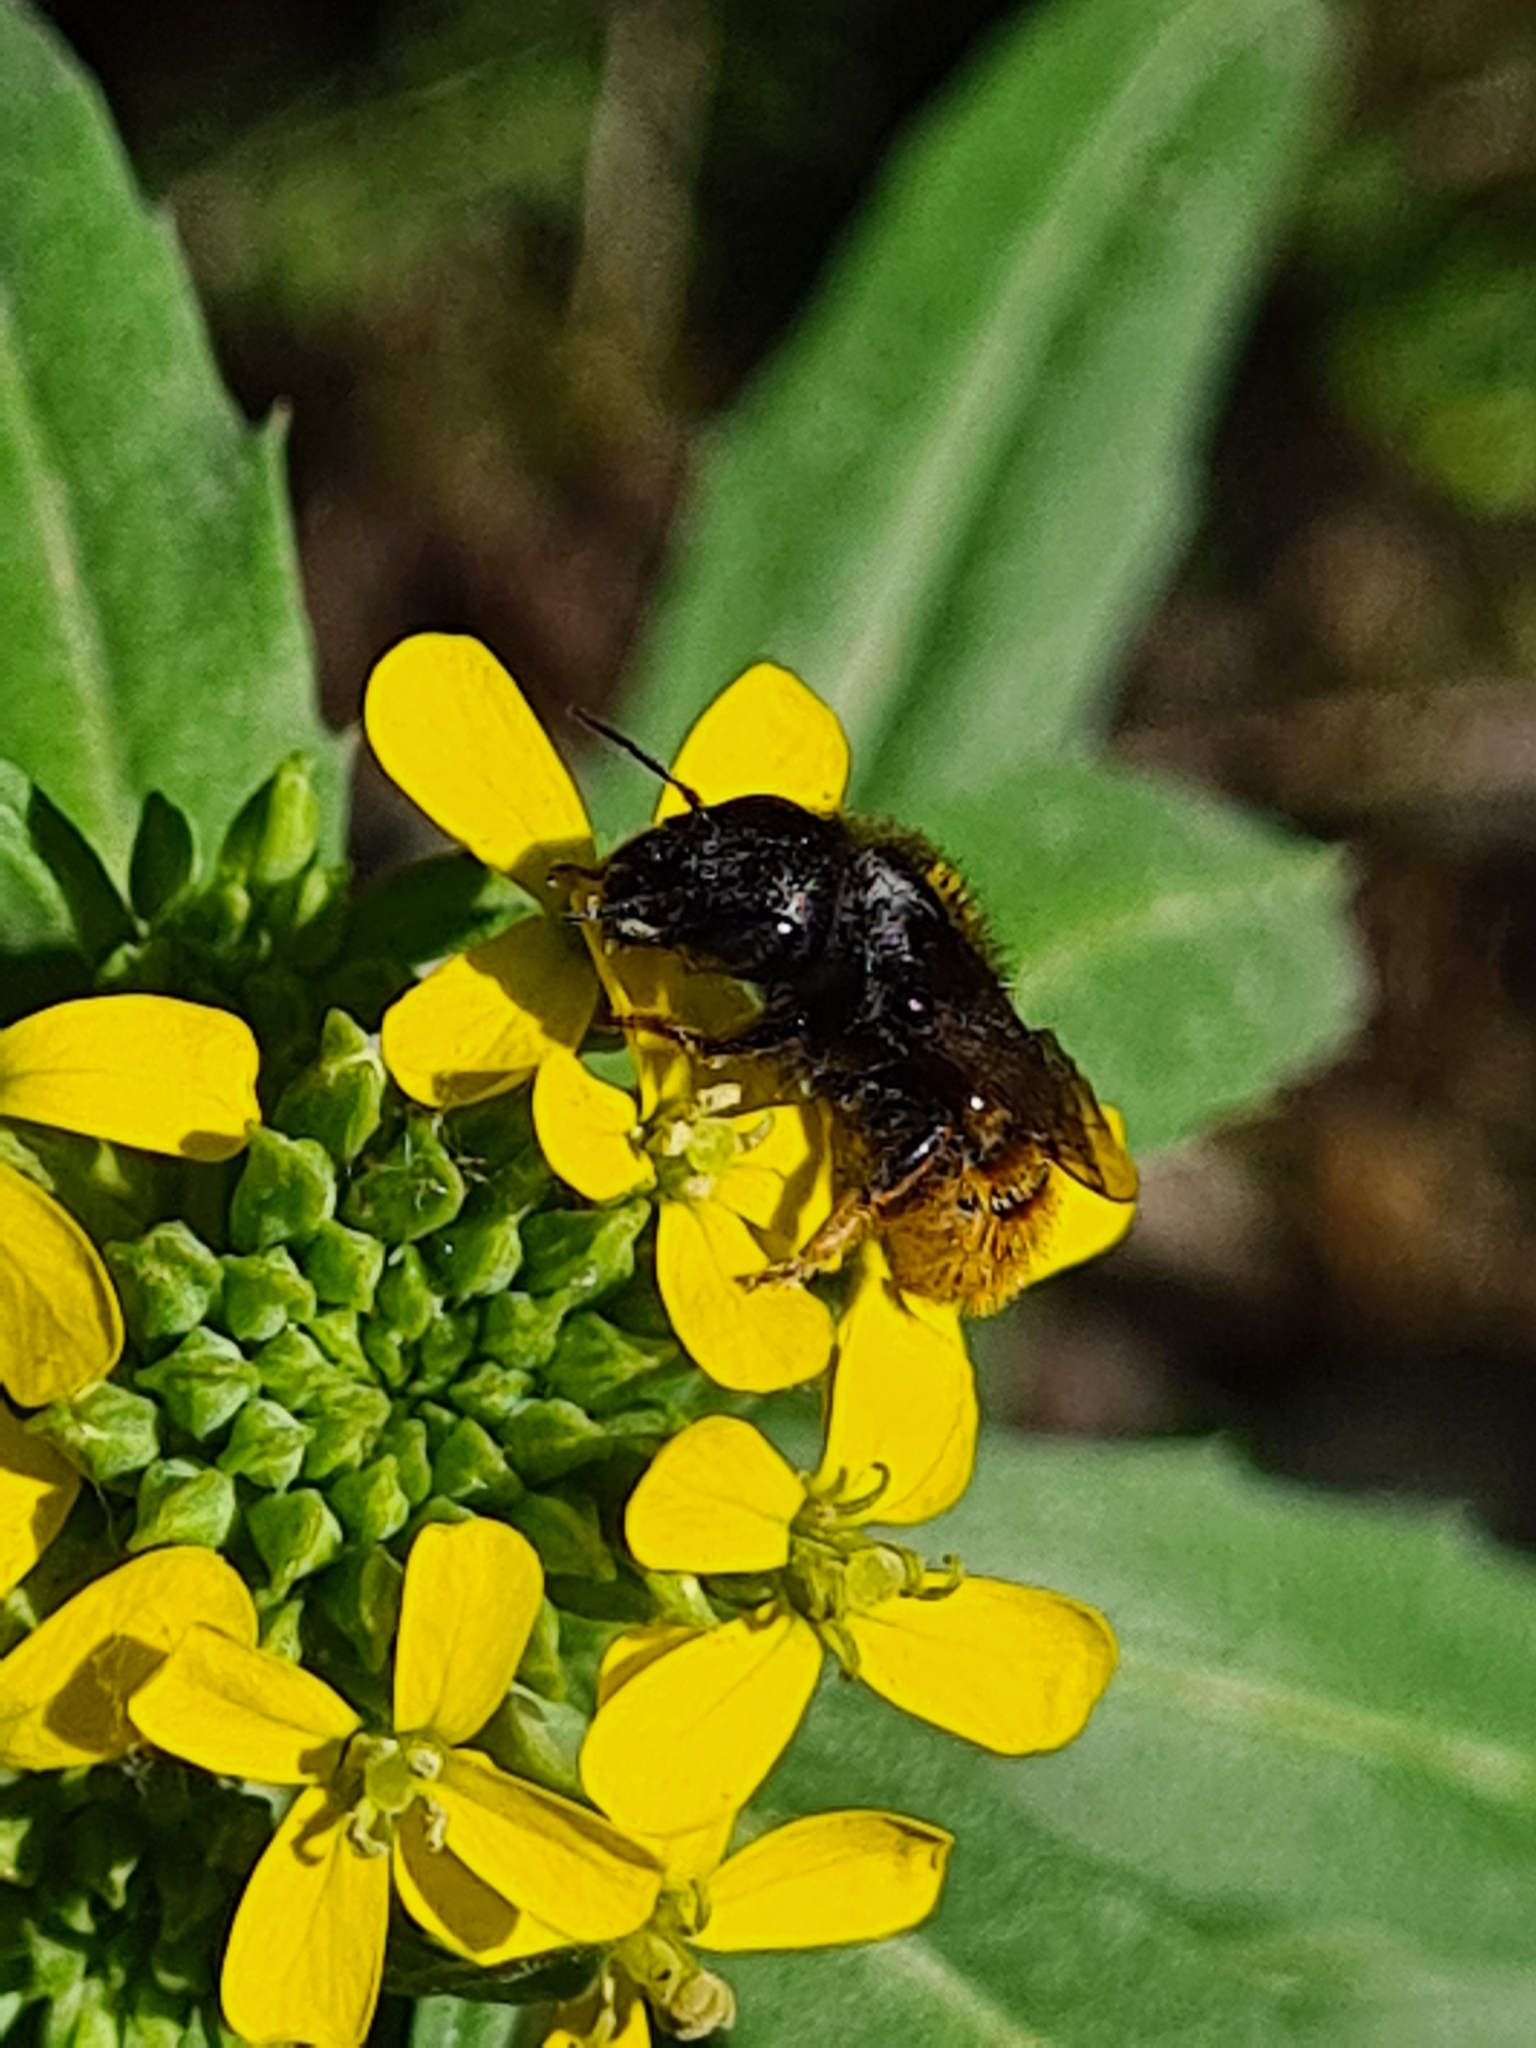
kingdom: Animalia
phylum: Arthropoda
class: Insecta
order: Hymenoptera
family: Megachilidae
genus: Osmia
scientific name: Osmia bicolor
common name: Red-tailed mason bee
